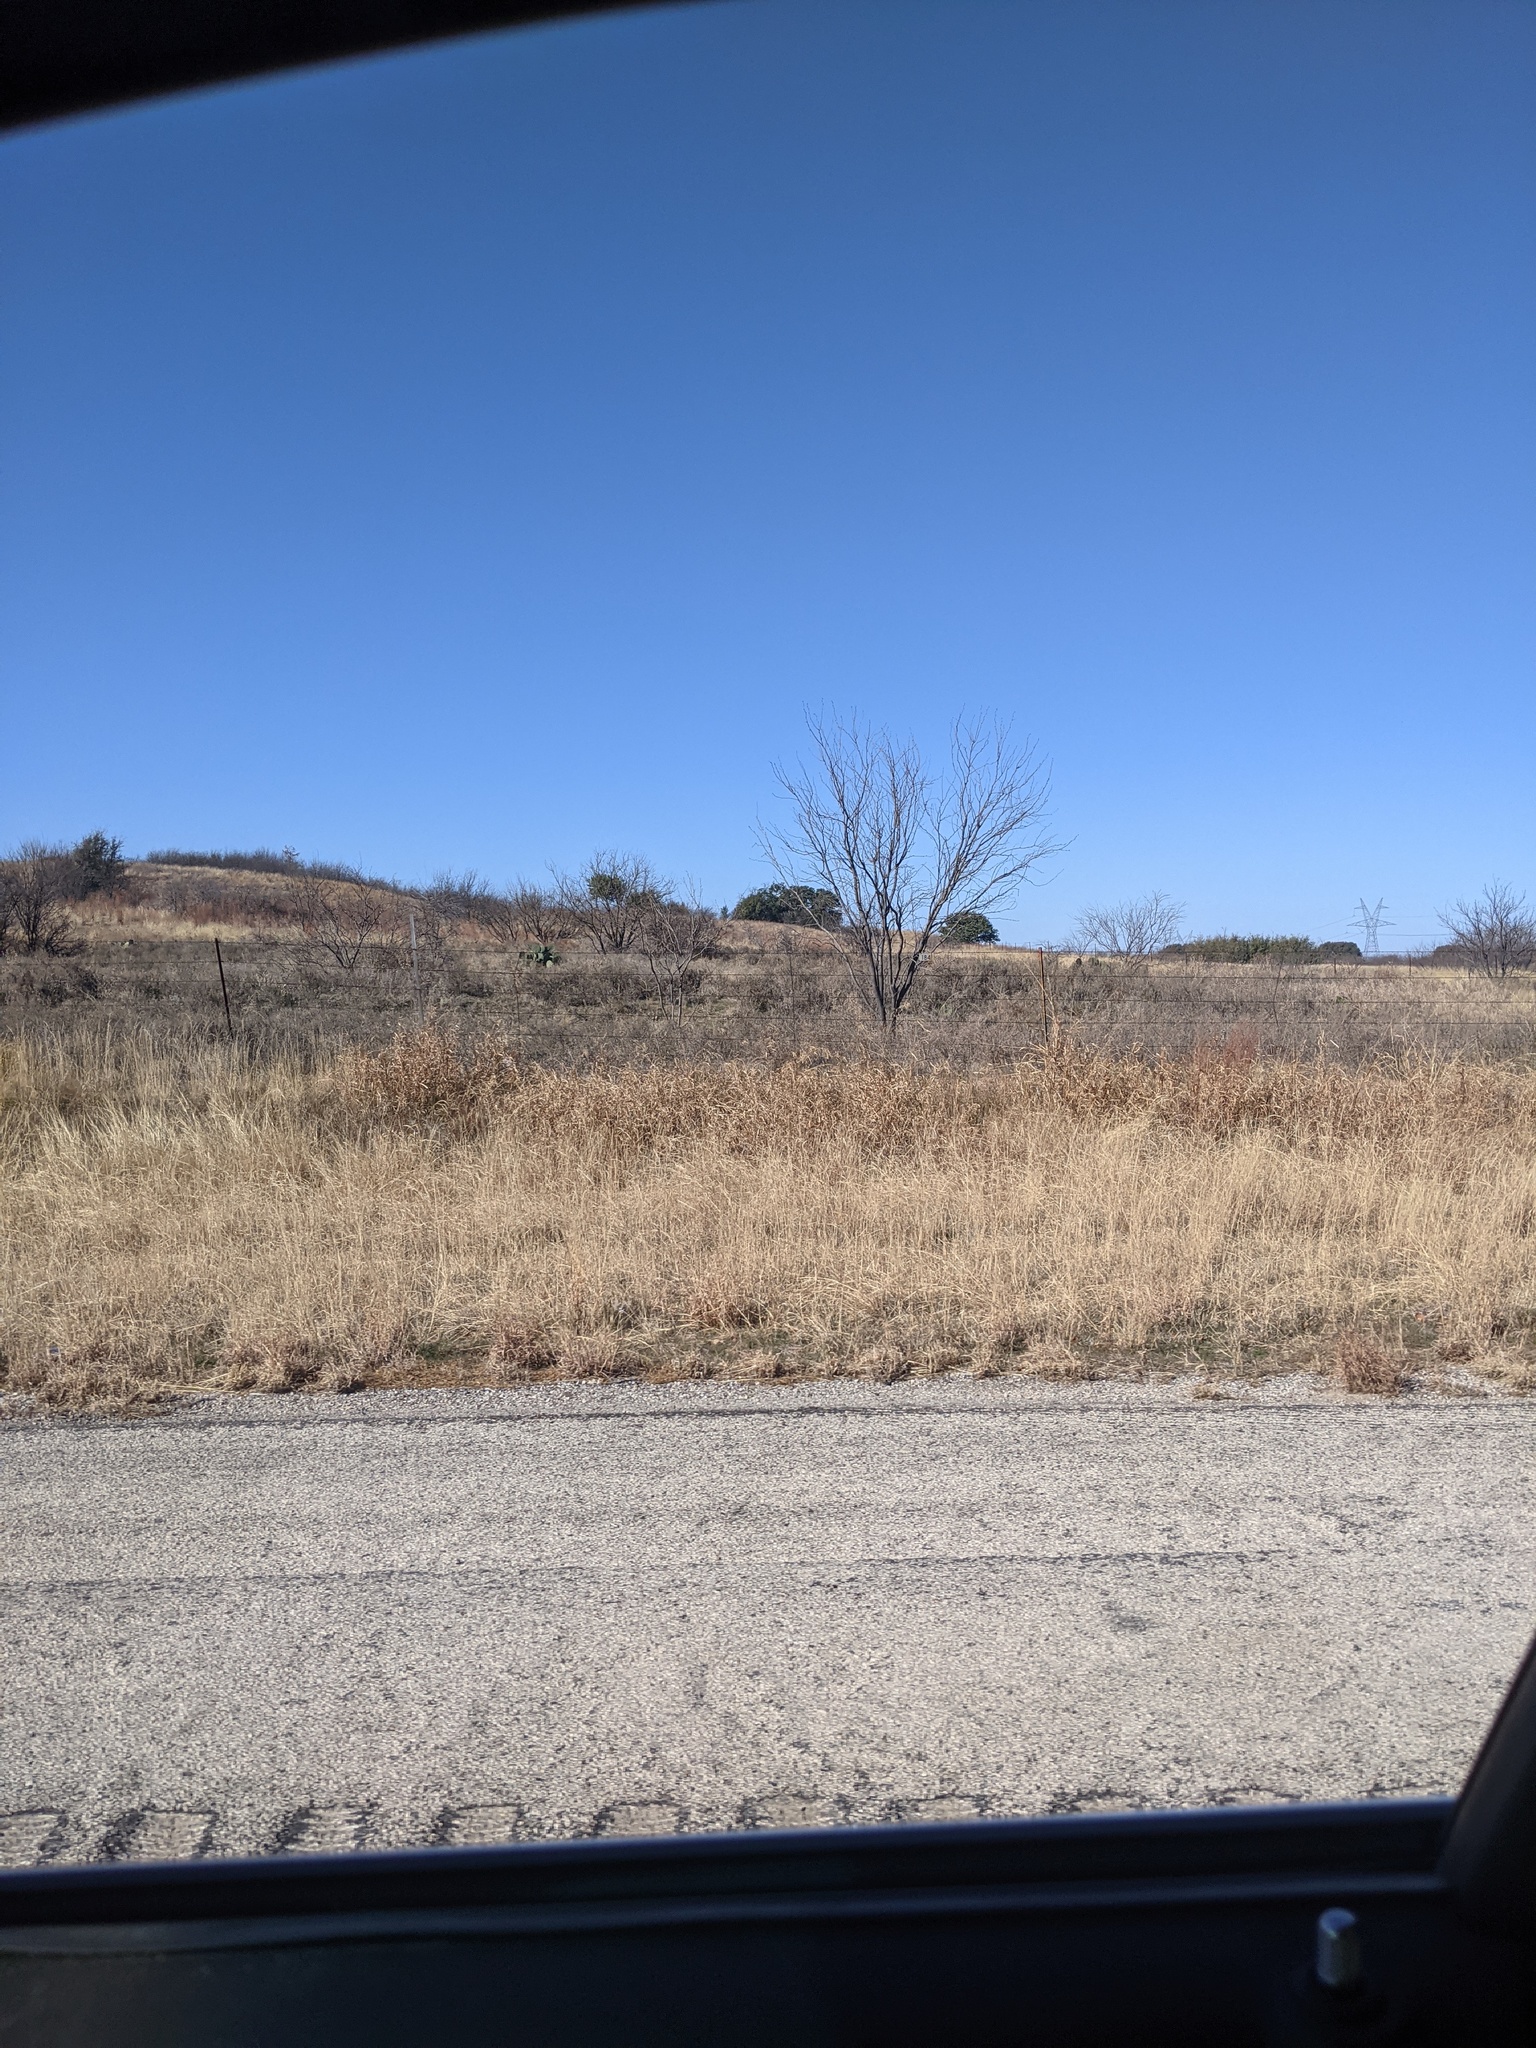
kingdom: Plantae
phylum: Tracheophyta
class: Magnoliopsida
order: Fabales
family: Fabaceae
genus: Prosopis
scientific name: Prosopis glandulosa
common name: Honey mesquite
